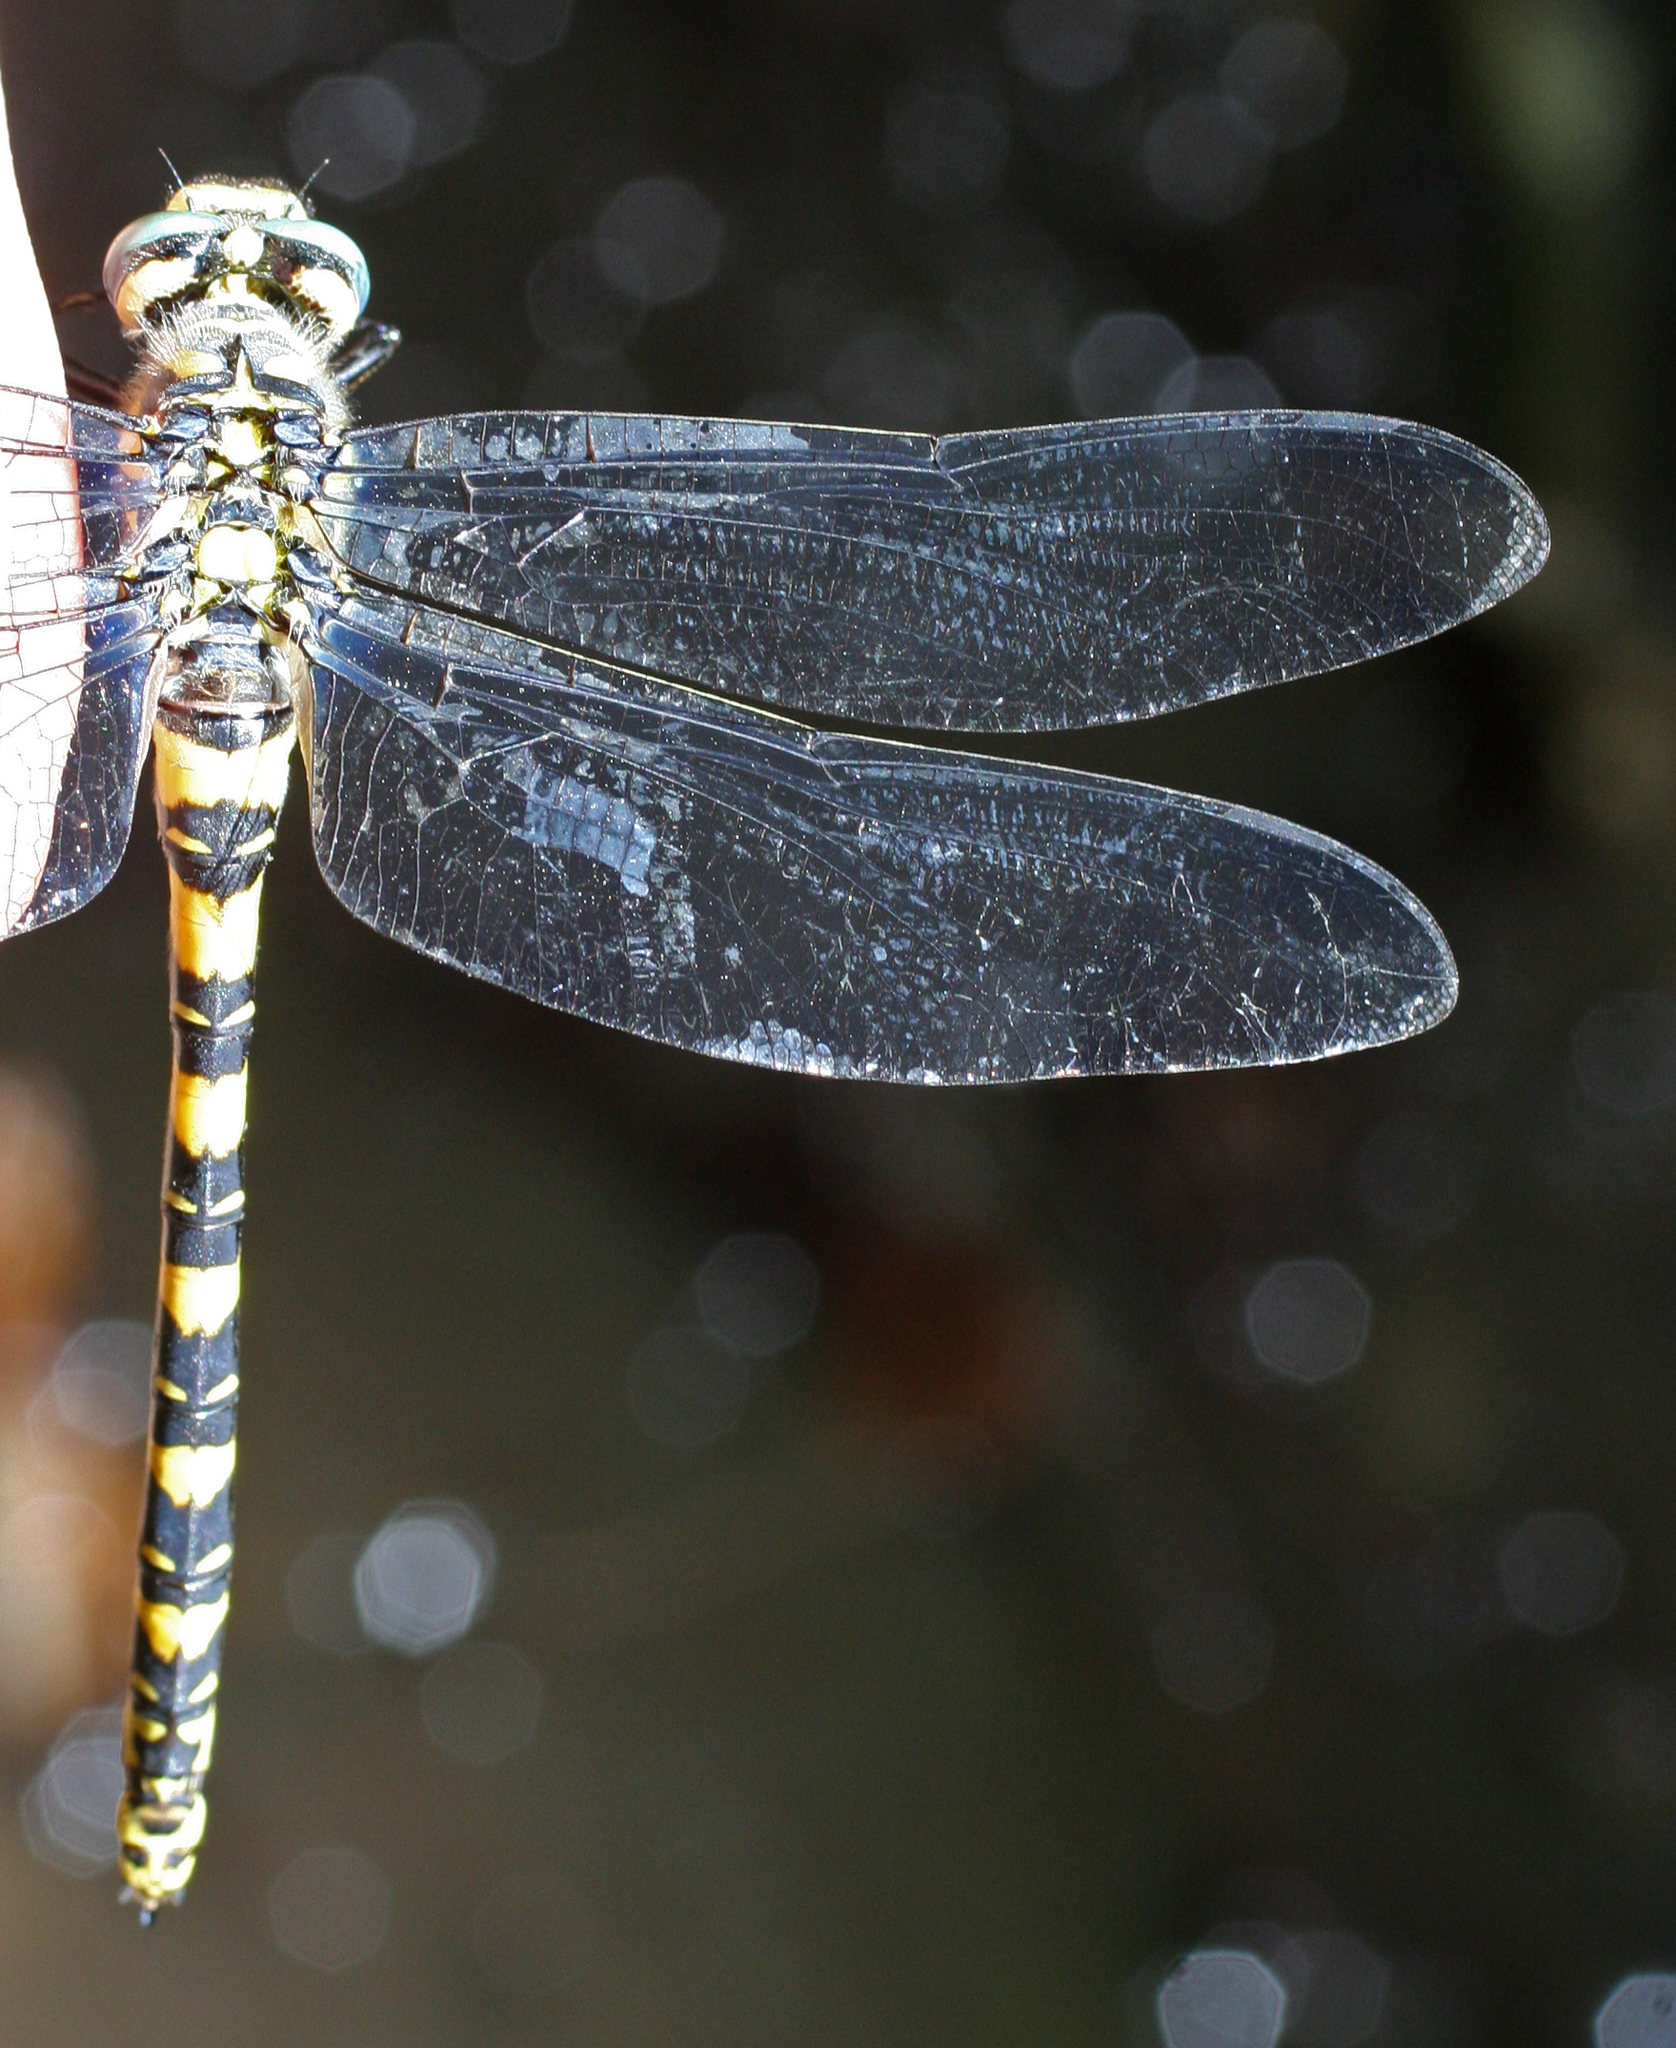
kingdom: Animalia
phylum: Arthropoda
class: Insecta
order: Odonata
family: Cordulegastridae
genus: Cordulegaster
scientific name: Cordulegaster charpentieri
